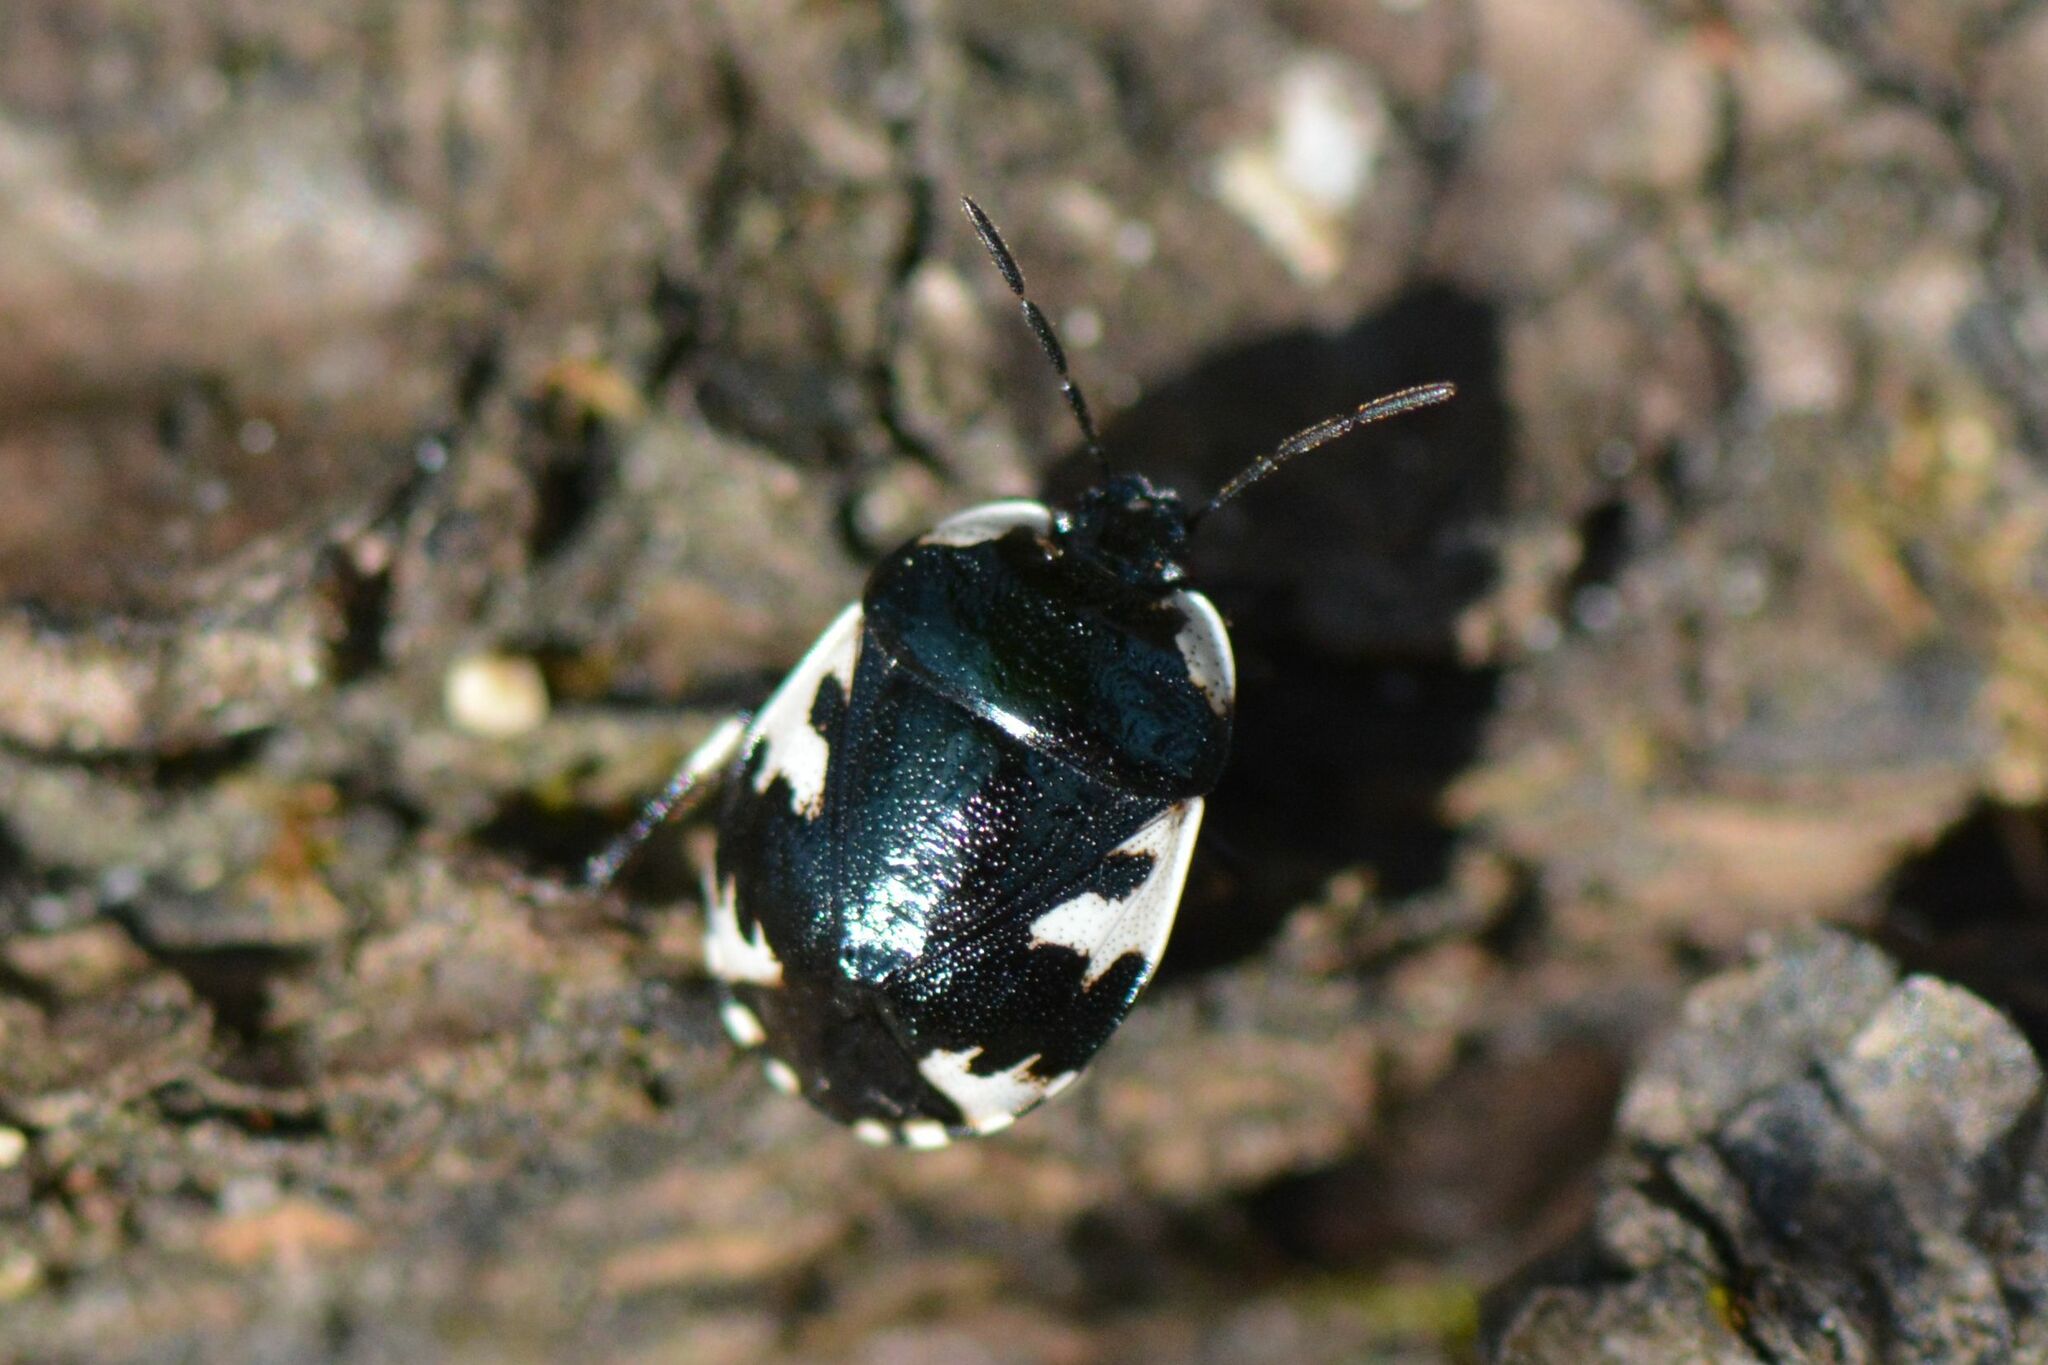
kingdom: Animalia
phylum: Arthropoda
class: Insecta
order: Hemiptera
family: Cydnidae
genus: Tritomegas
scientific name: Tritomegas rotundipennis
